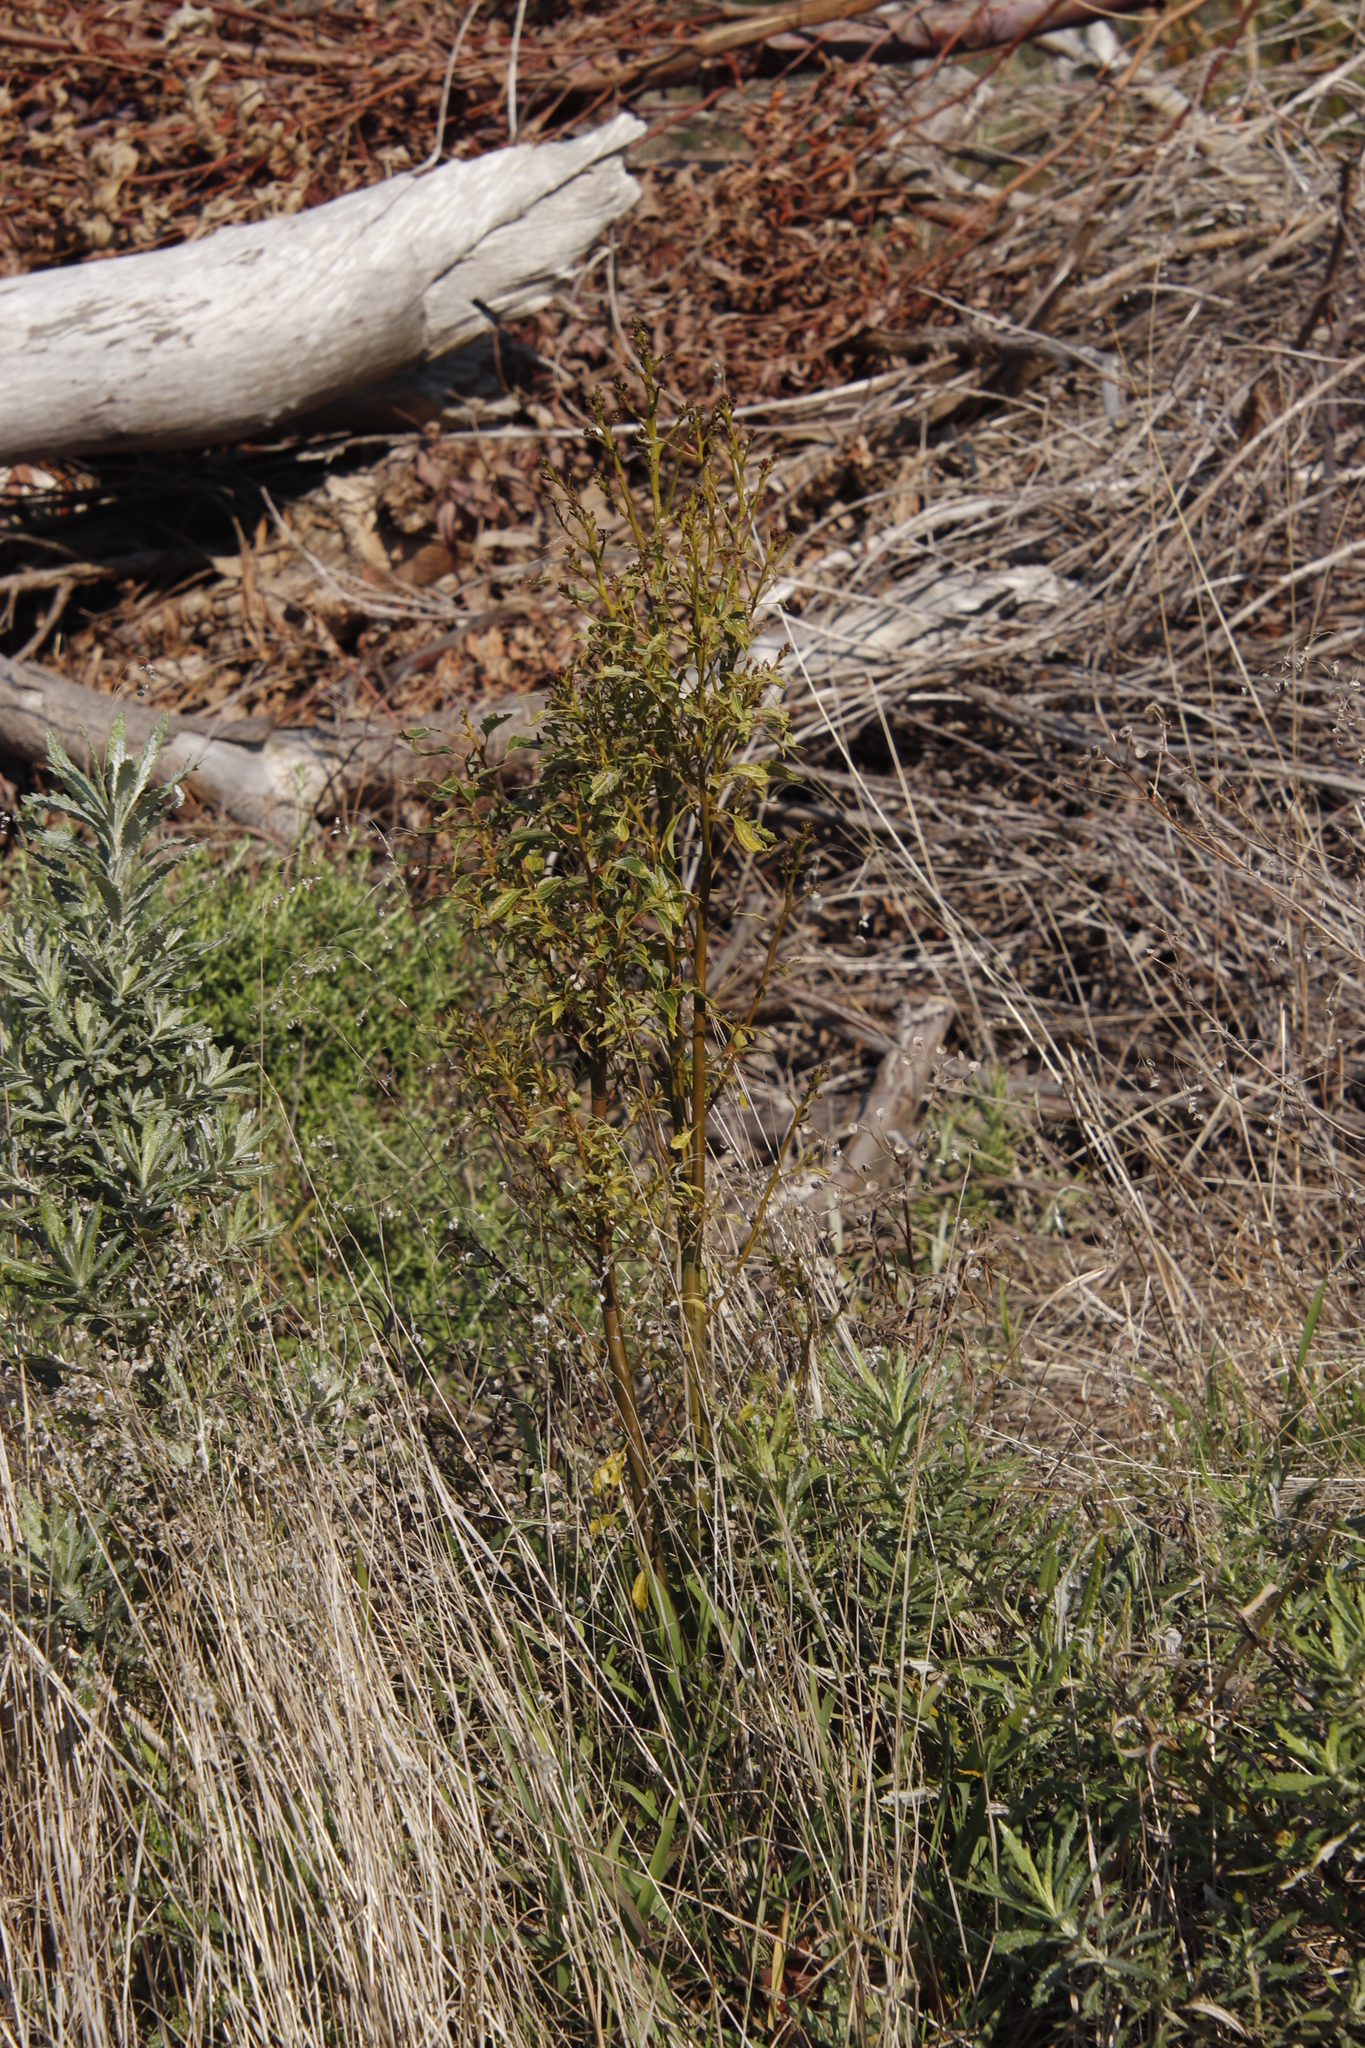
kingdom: Plantae
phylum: Tracheophyta
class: Magnoliopsida
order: Laurales
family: Lauraceae
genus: Cinnamomum
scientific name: Cinnamomum camphora
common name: Camphortree
